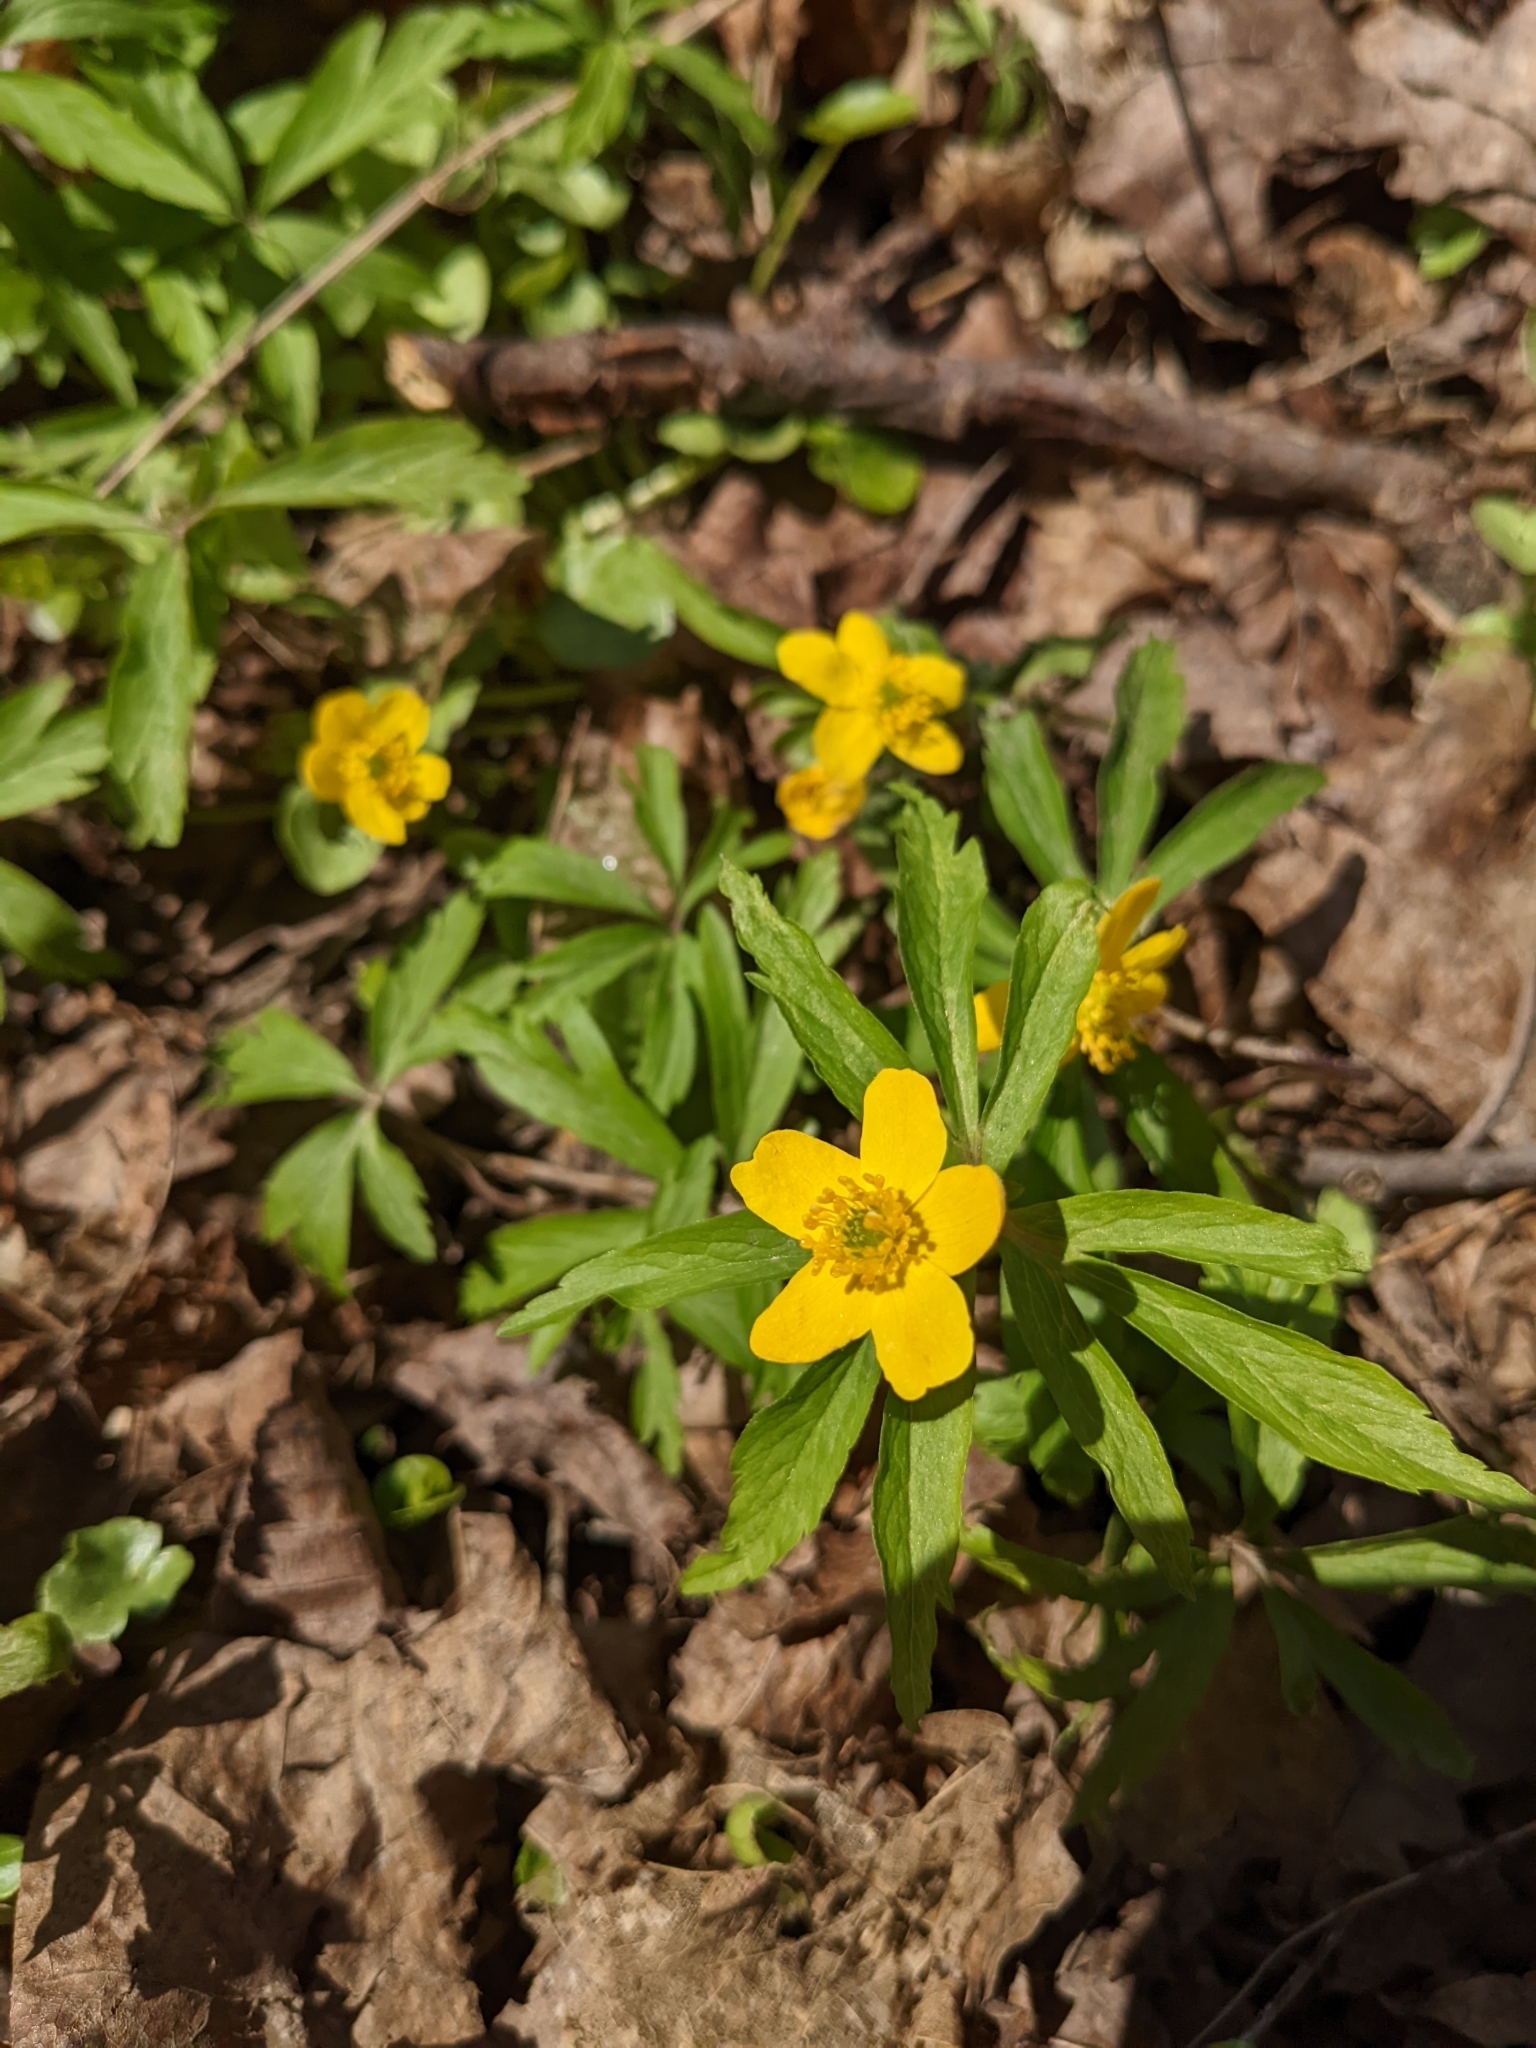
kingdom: Plantae
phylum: Tracheophyta
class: Magnoliopsida
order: Ranunculales
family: Ranunculaceae
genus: Anemone
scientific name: Anemone ranunculoides
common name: Yellow anemone
